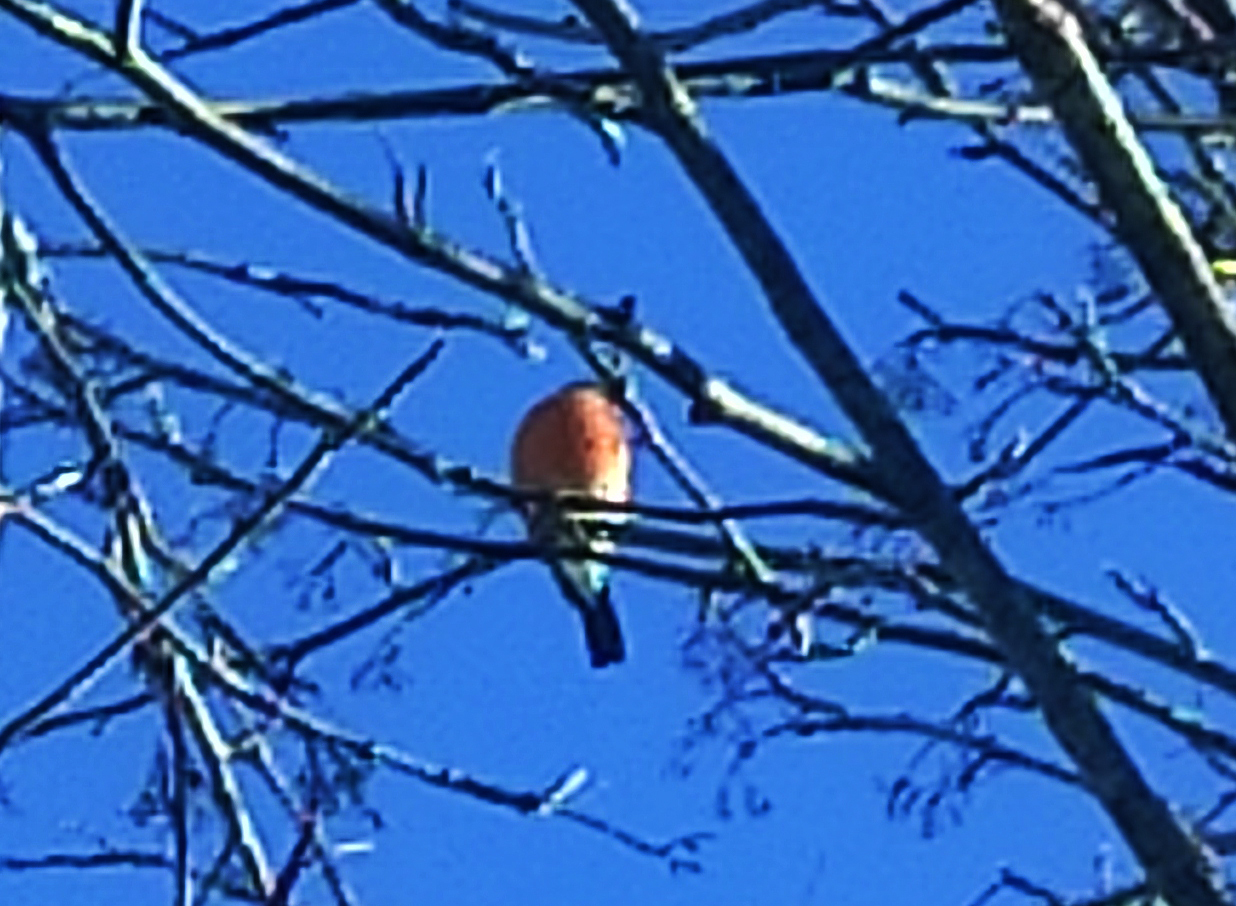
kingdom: Animalia
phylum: Chordata
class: Aves
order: Passeriformes
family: Fringillidae
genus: Pyrrhula
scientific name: Pyrrhula pyrrhula
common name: Eurasian bullfinch
